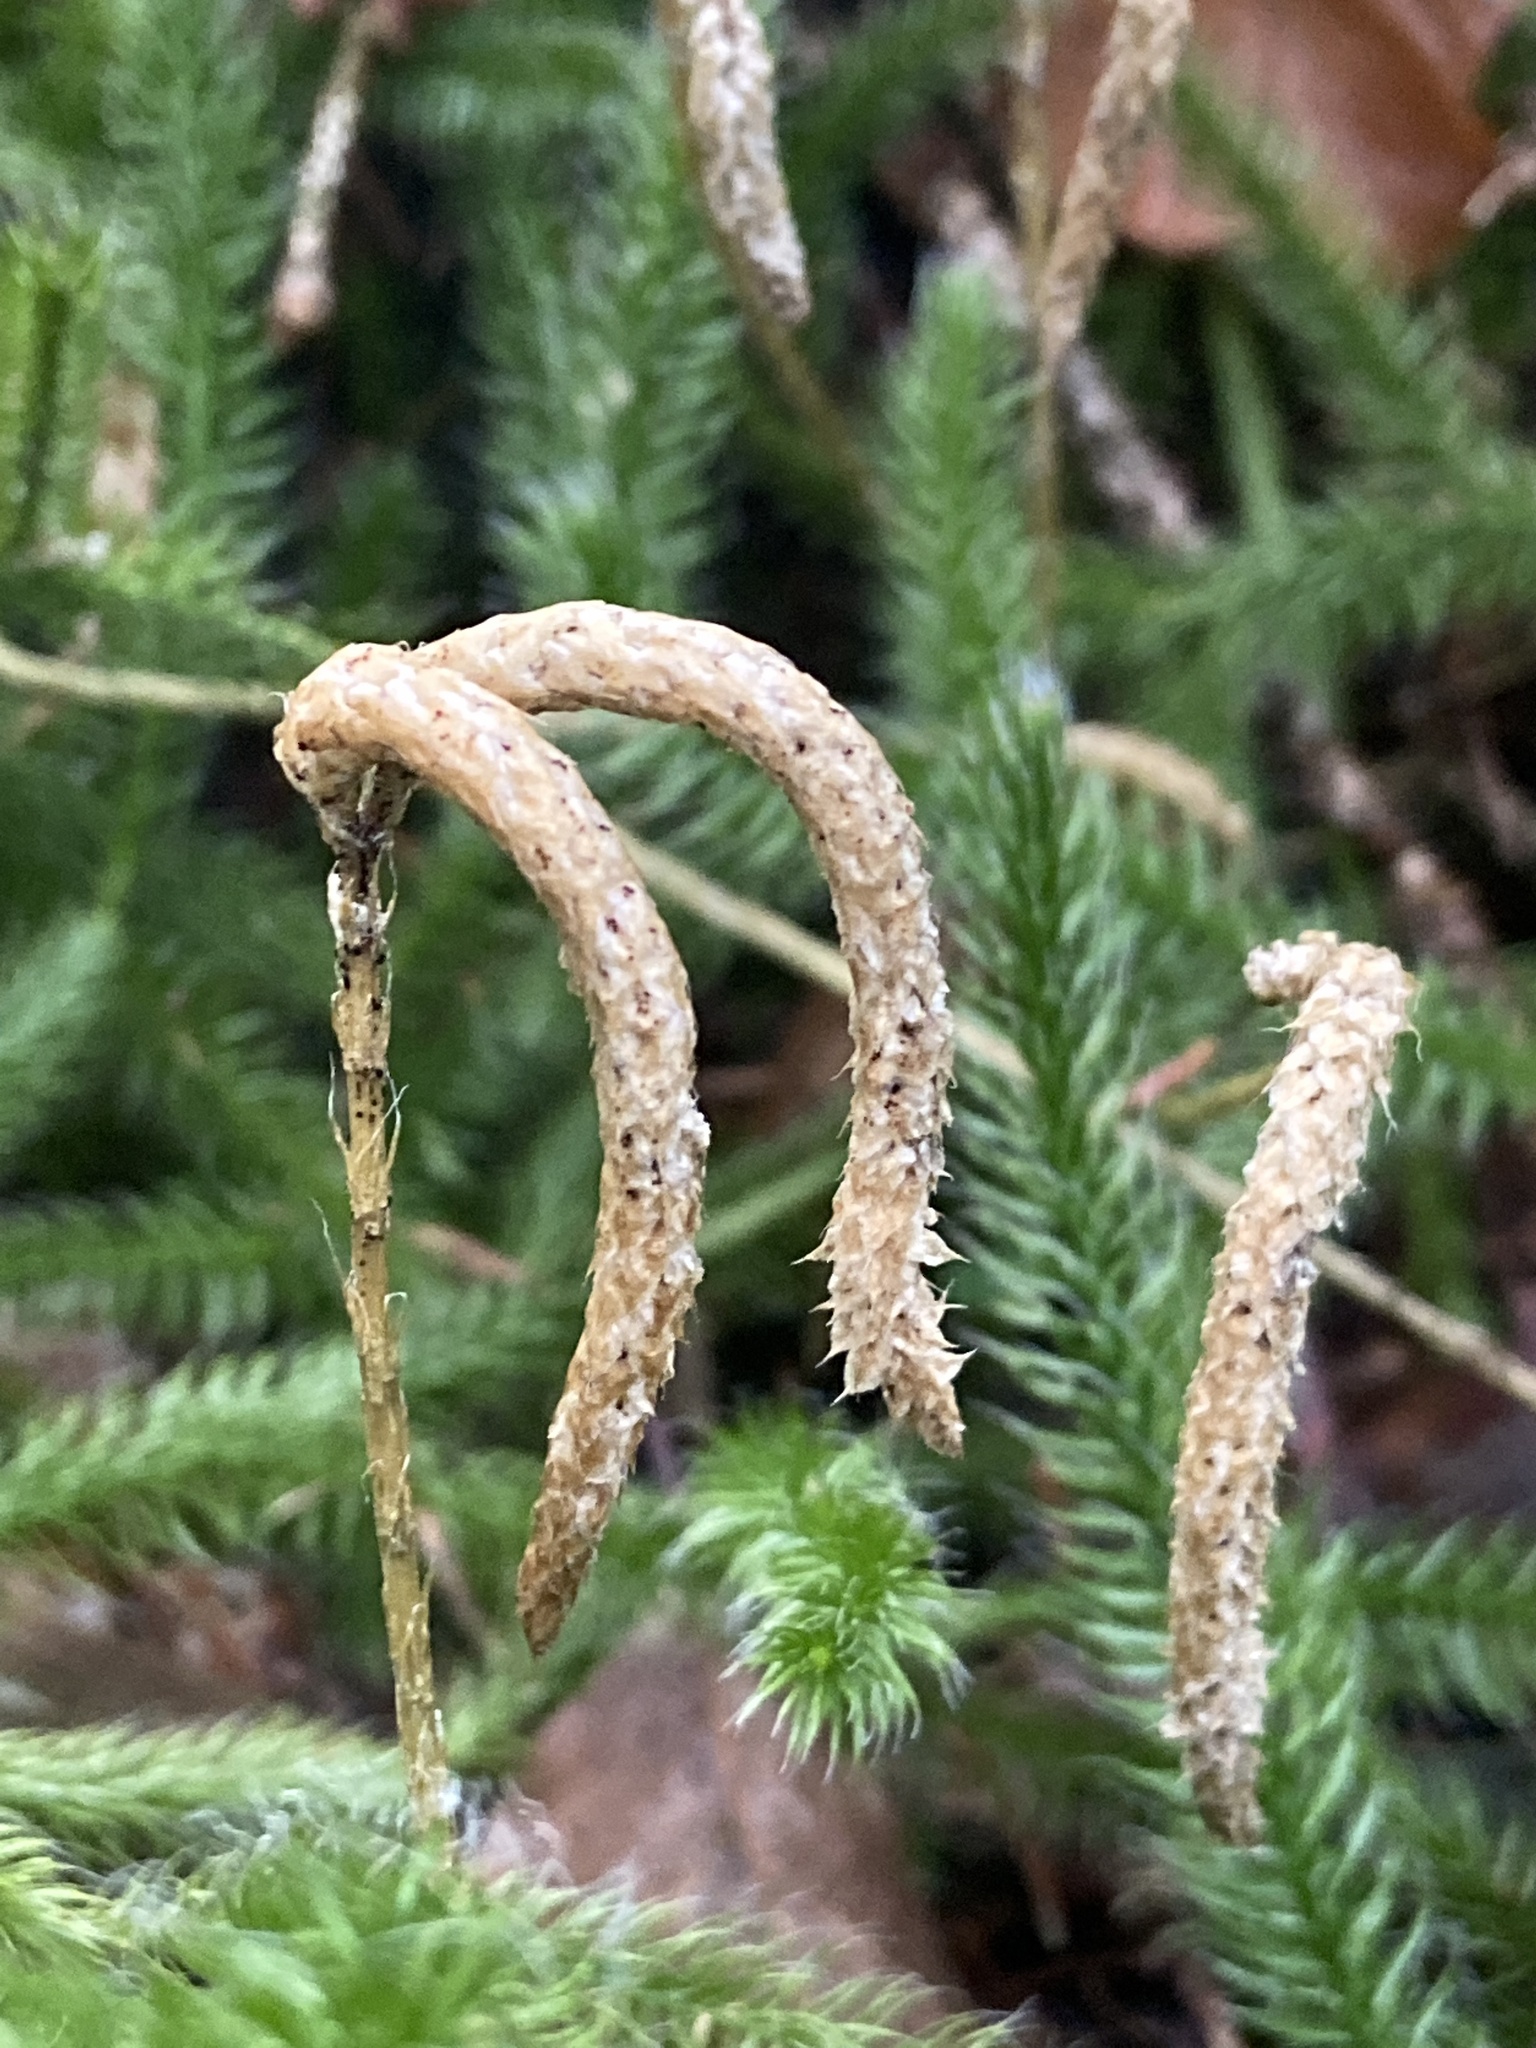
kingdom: Plantae
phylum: Tracheophyta
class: Lycopodiopsida
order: Lycopodiales
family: Lycopodiaceae
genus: Lycopodium
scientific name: Lycopodium clavatum
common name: Stag's-horn clubmoss
